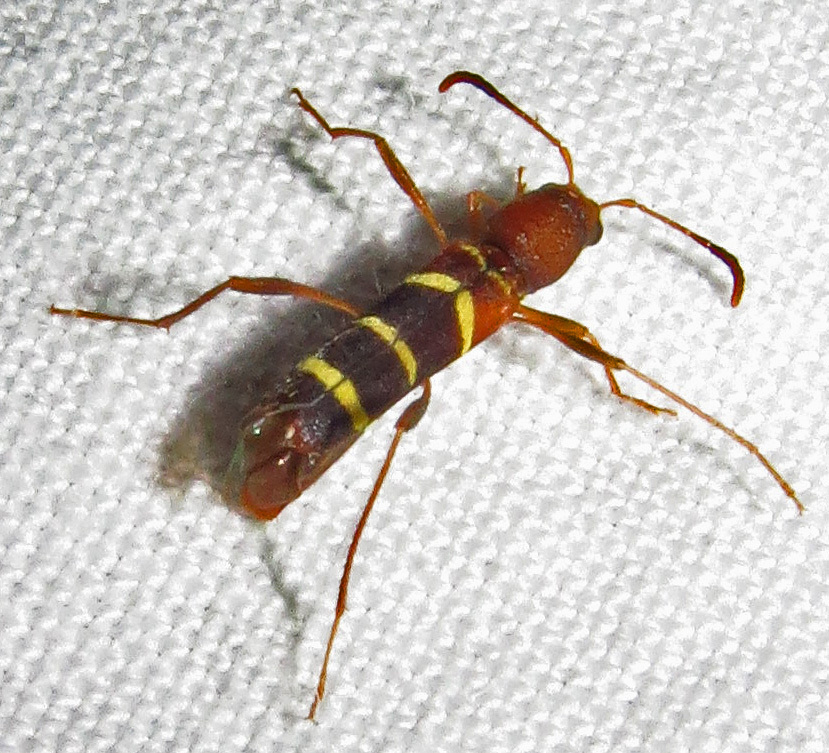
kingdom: Animalia
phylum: Arthropoda
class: Insecta
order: Coleoptera
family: Cerambycidae
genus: Neoclytus
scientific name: Neoclytus acuminatus
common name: Read-headed ash borer
